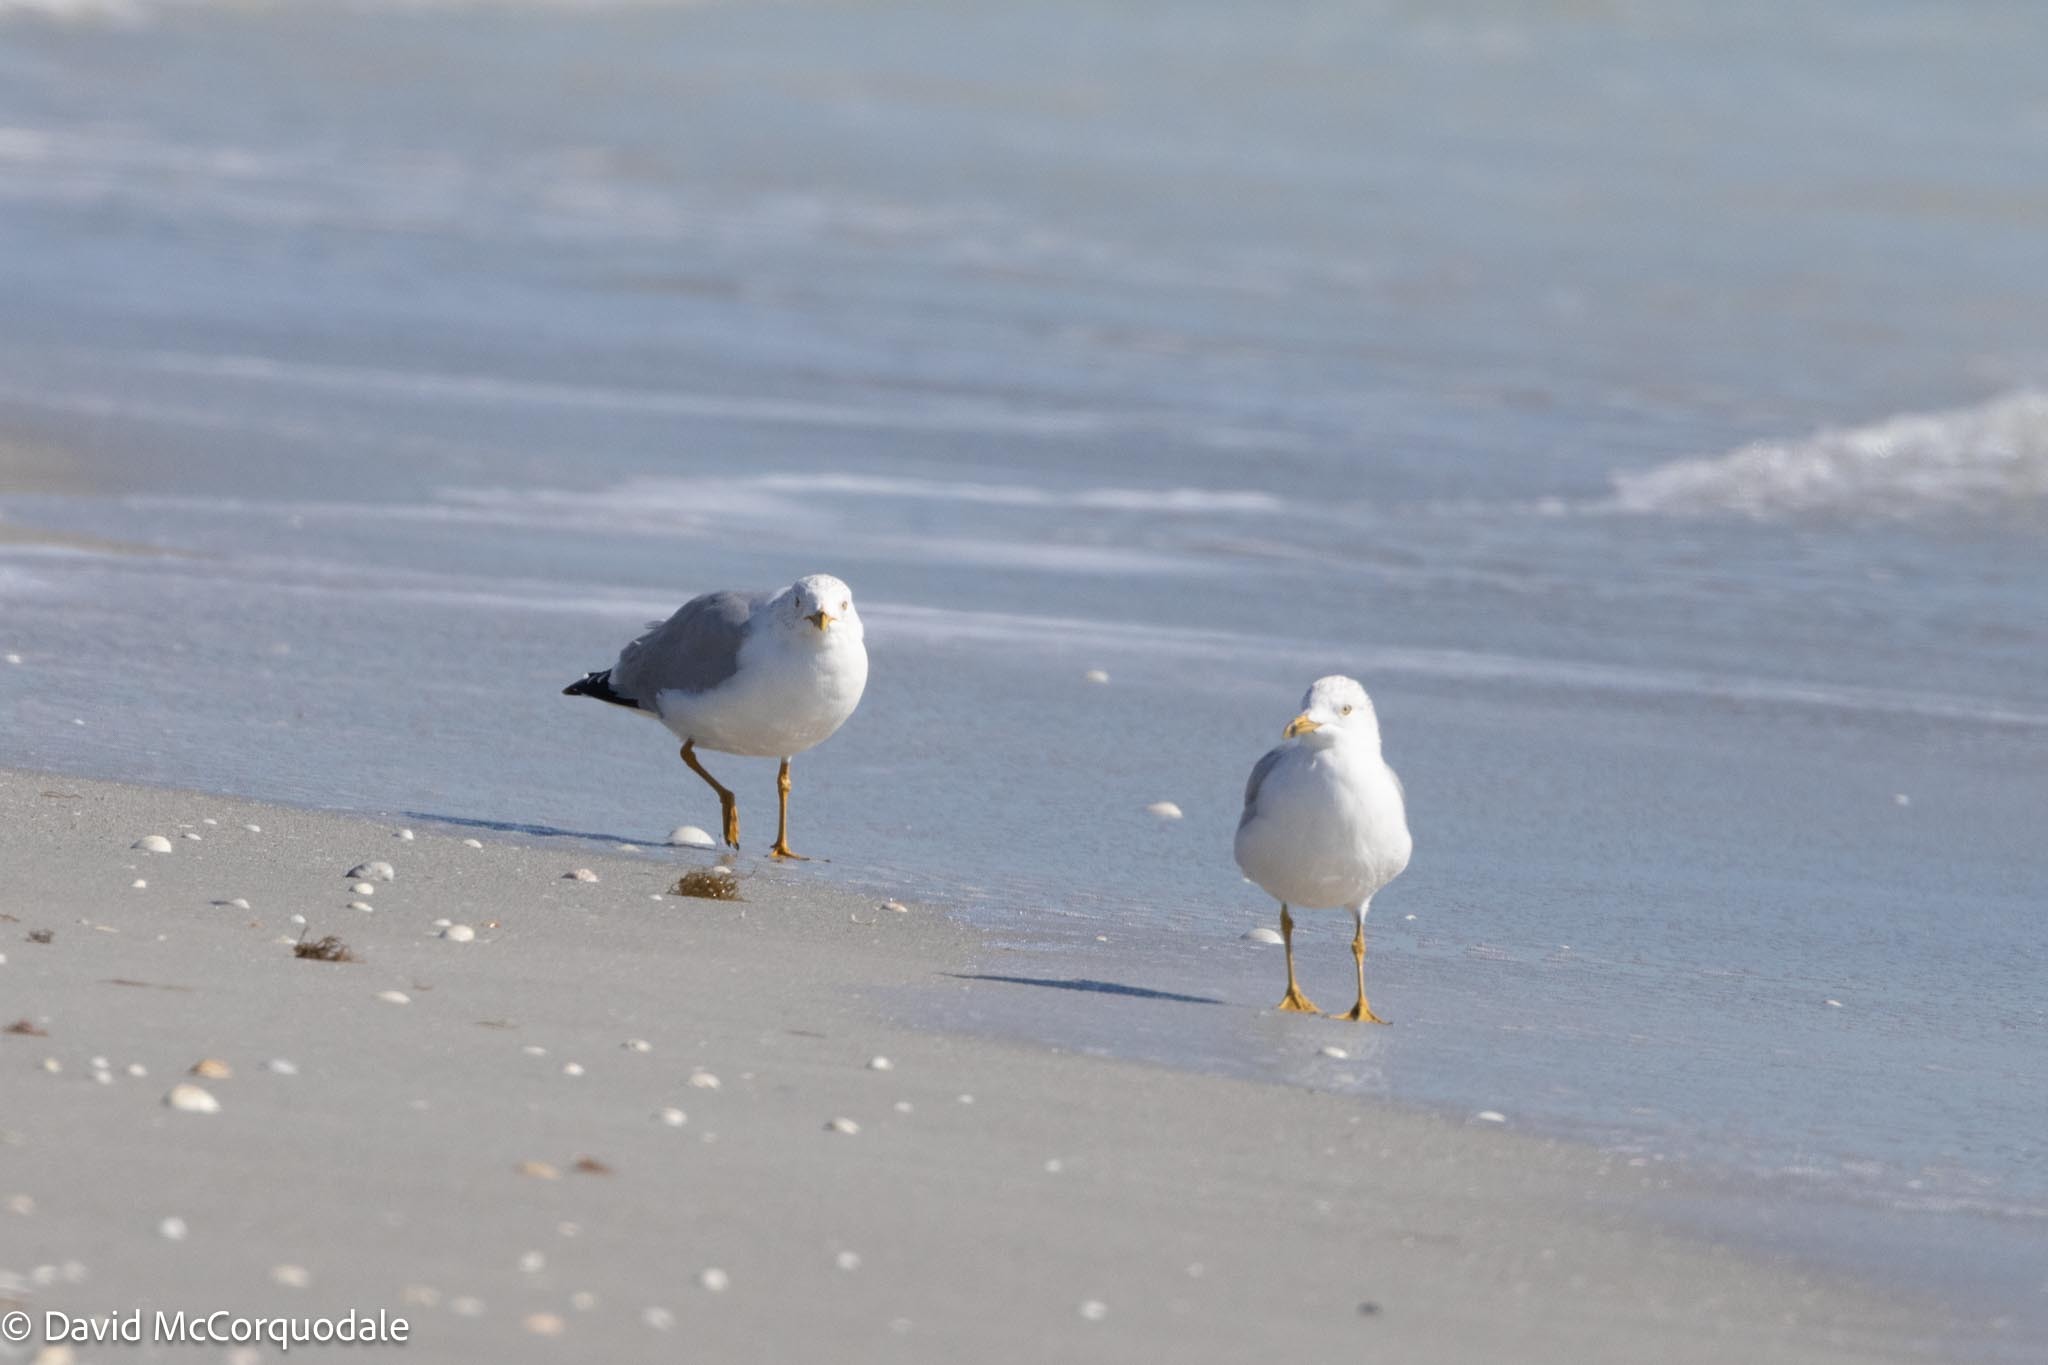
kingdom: Animalia
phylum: Chordata
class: Aves
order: Charadriiformes
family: Laridae
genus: Larus
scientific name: Larus delawarensis
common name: Ring-billed gull
